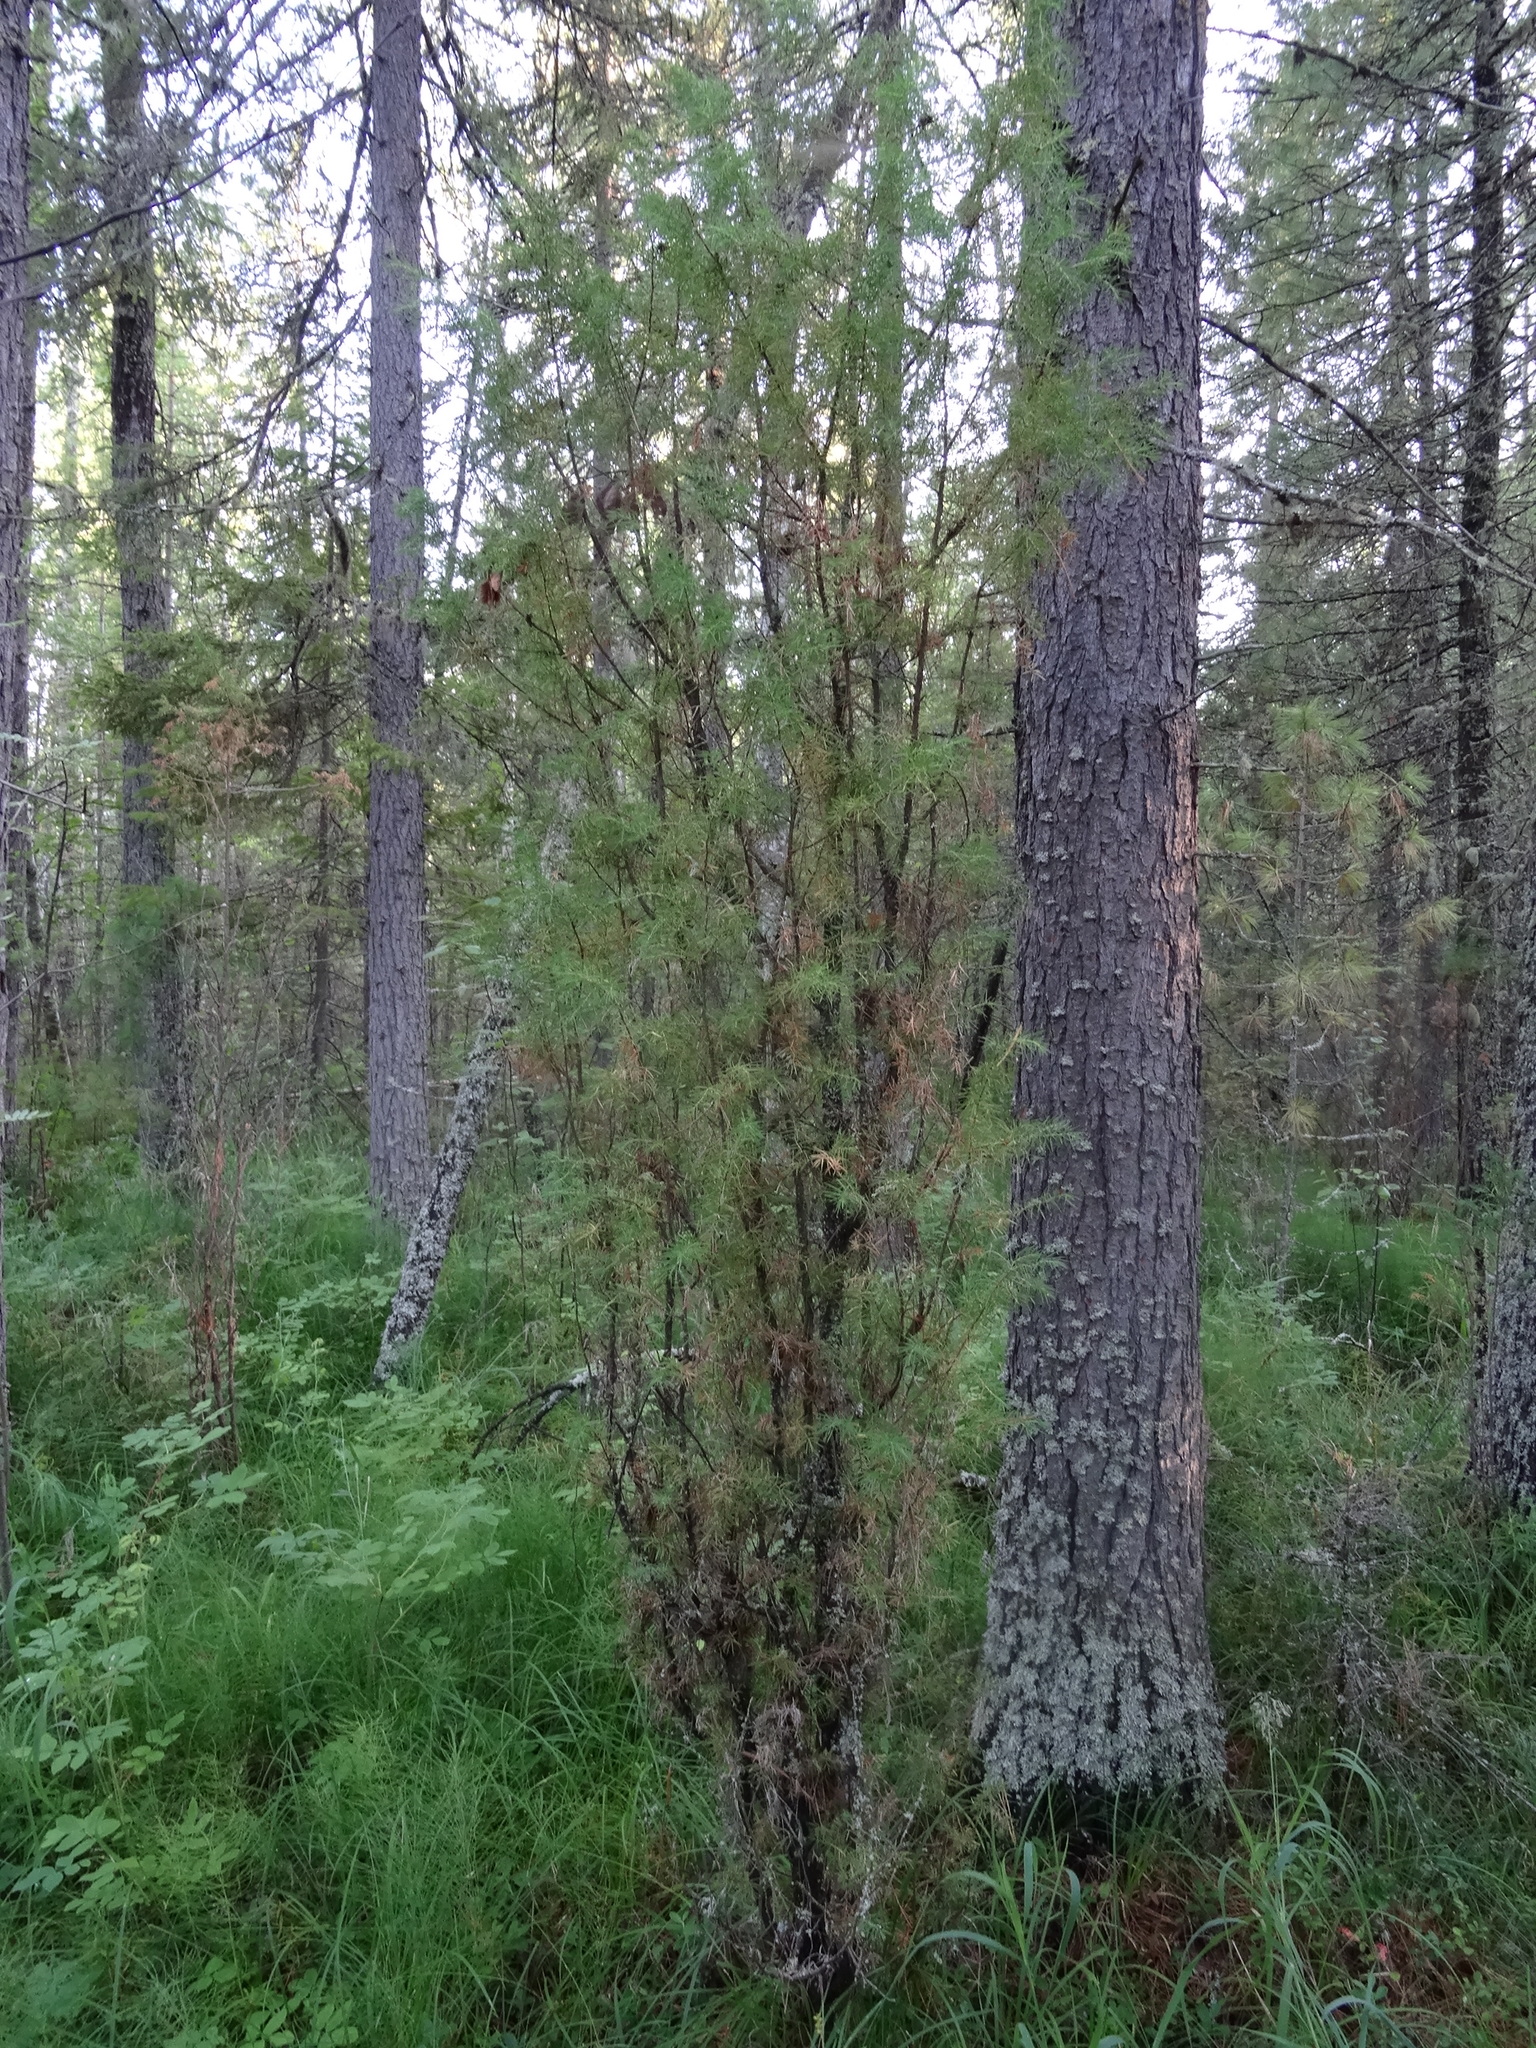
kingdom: Plantae
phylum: Tracheophyta
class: Pinopsida
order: Pinales
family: Cupressaceae
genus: Juniperus
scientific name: Juniperus communis
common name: Common juniper
